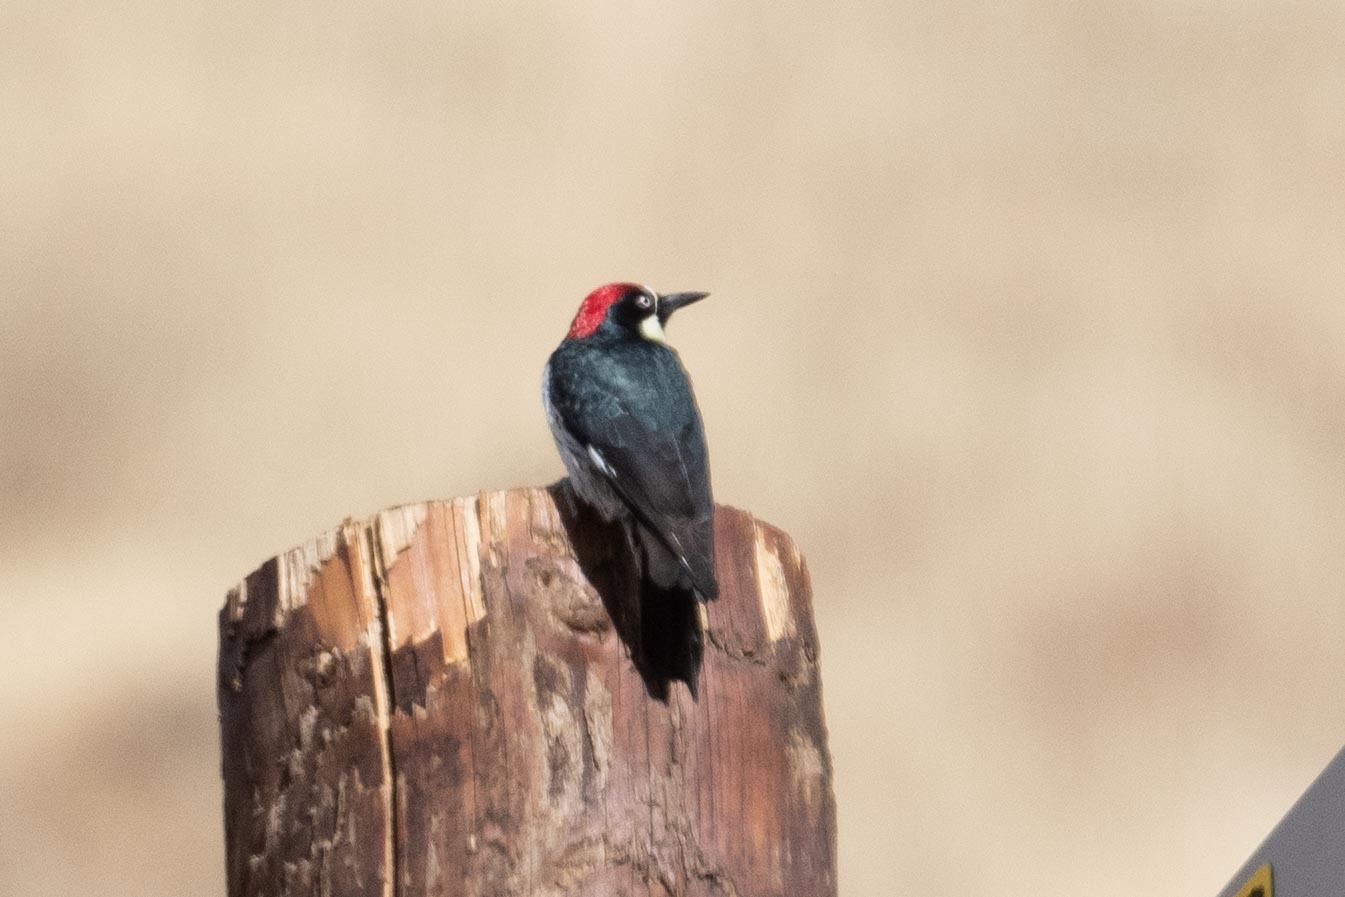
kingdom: Animalia
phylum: Chordata
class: Aves
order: Piciformes
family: Picidae
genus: Melanerpes
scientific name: Melanerpes formicivorus
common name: Acorn woodpecker
